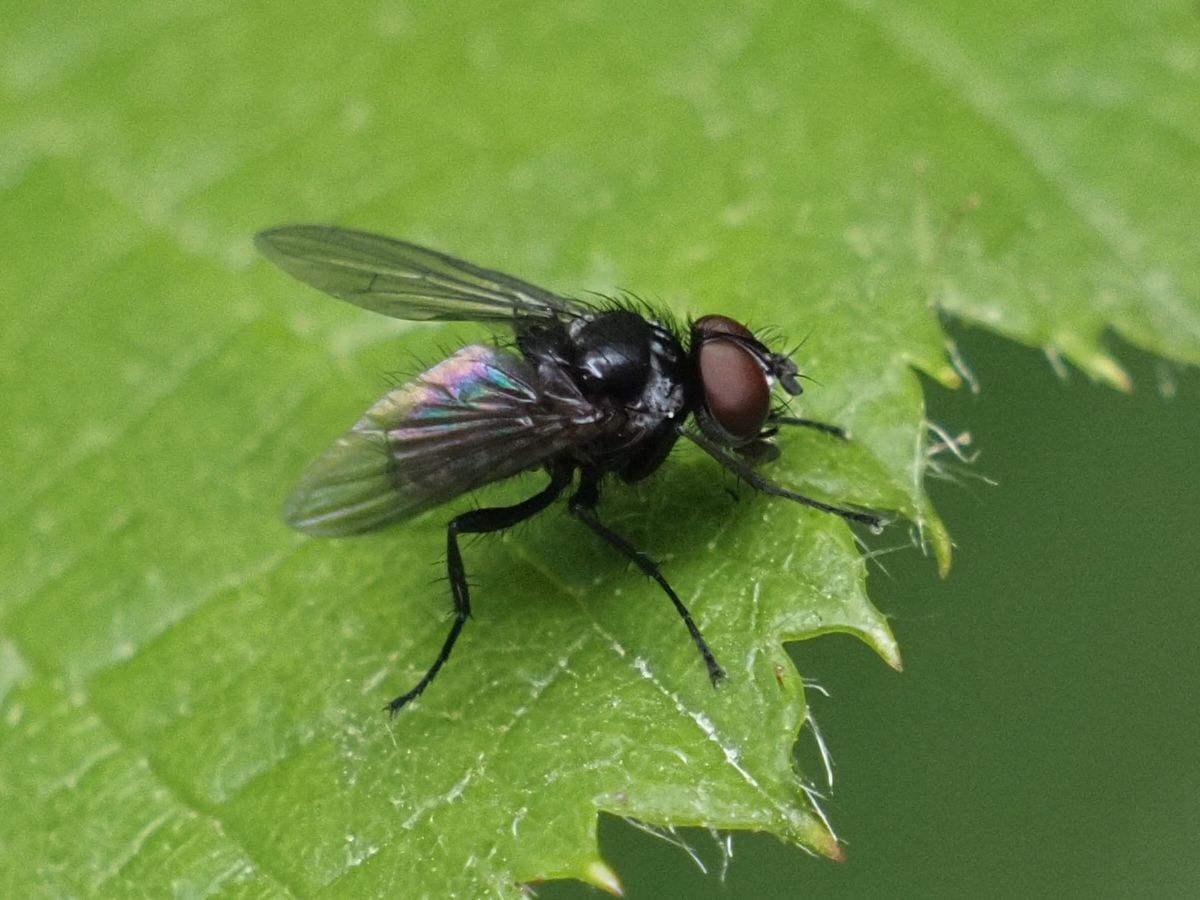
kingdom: Animalia
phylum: Arthropoda
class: Insecta
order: Diptera
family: Tachinidae
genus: Microsoma
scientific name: Microsoma exiguum
